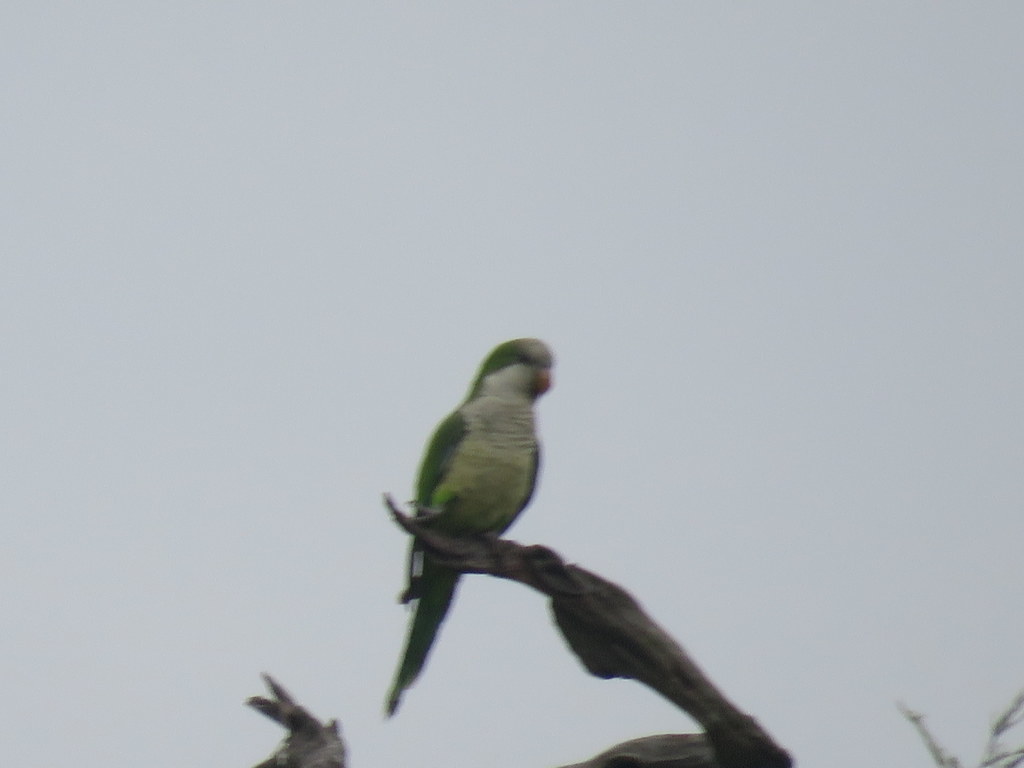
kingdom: Animalia
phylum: Chordata
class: Aves
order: Psittaciformes
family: Psittacidae
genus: Myiopsitta
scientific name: Myiopsitta monachus
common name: Monk parakeet
